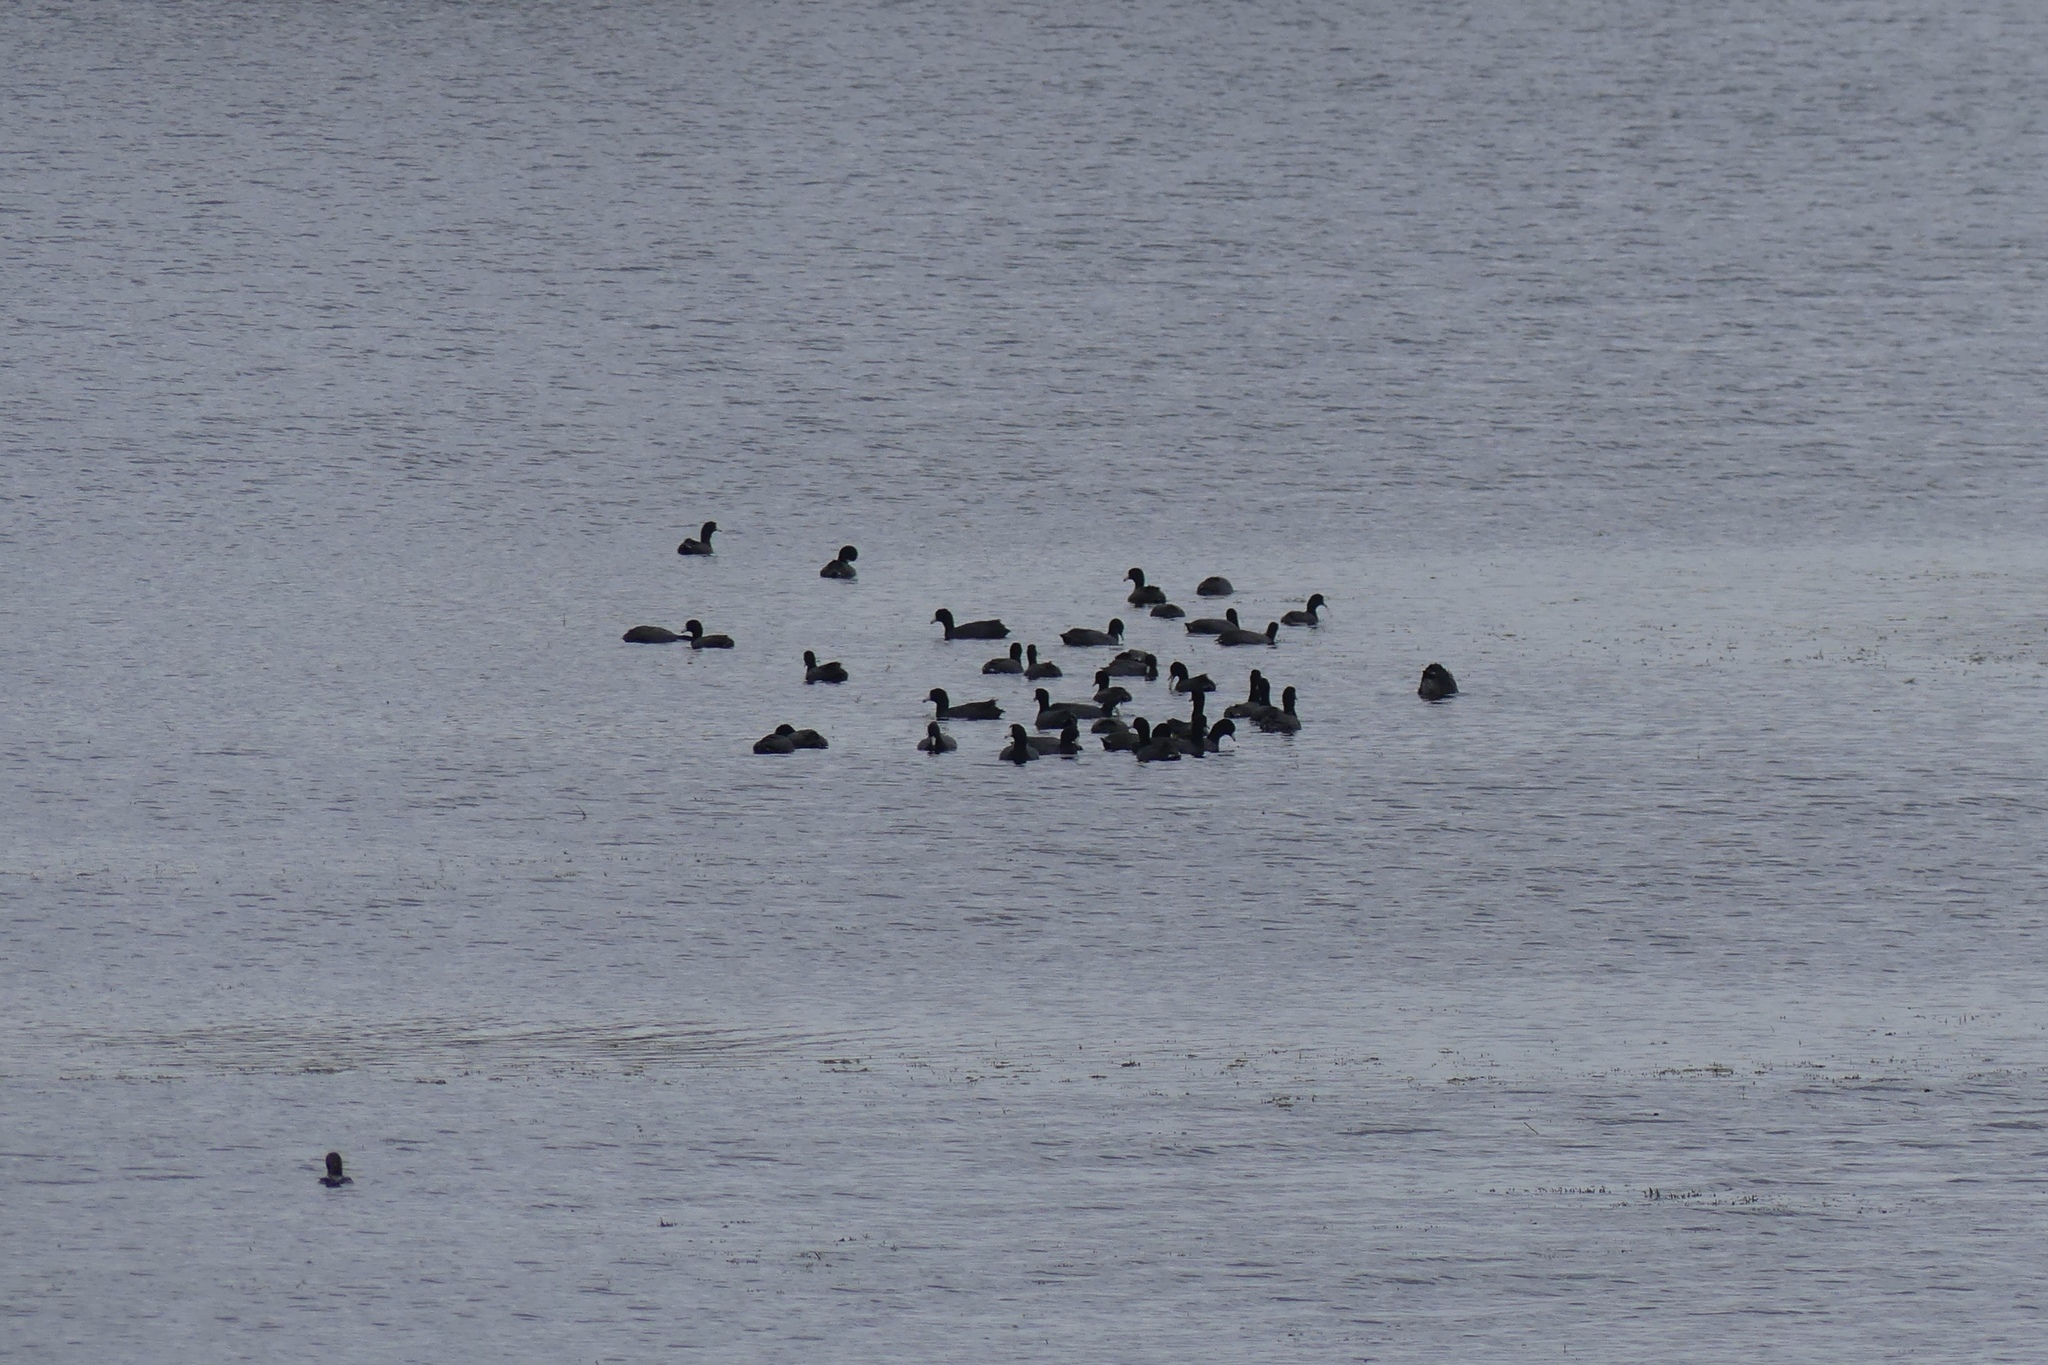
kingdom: Animalia
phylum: Chordata
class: Aves
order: Gruiformes
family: Rallidae
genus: Fulica
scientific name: Fulica americana
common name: American coot
